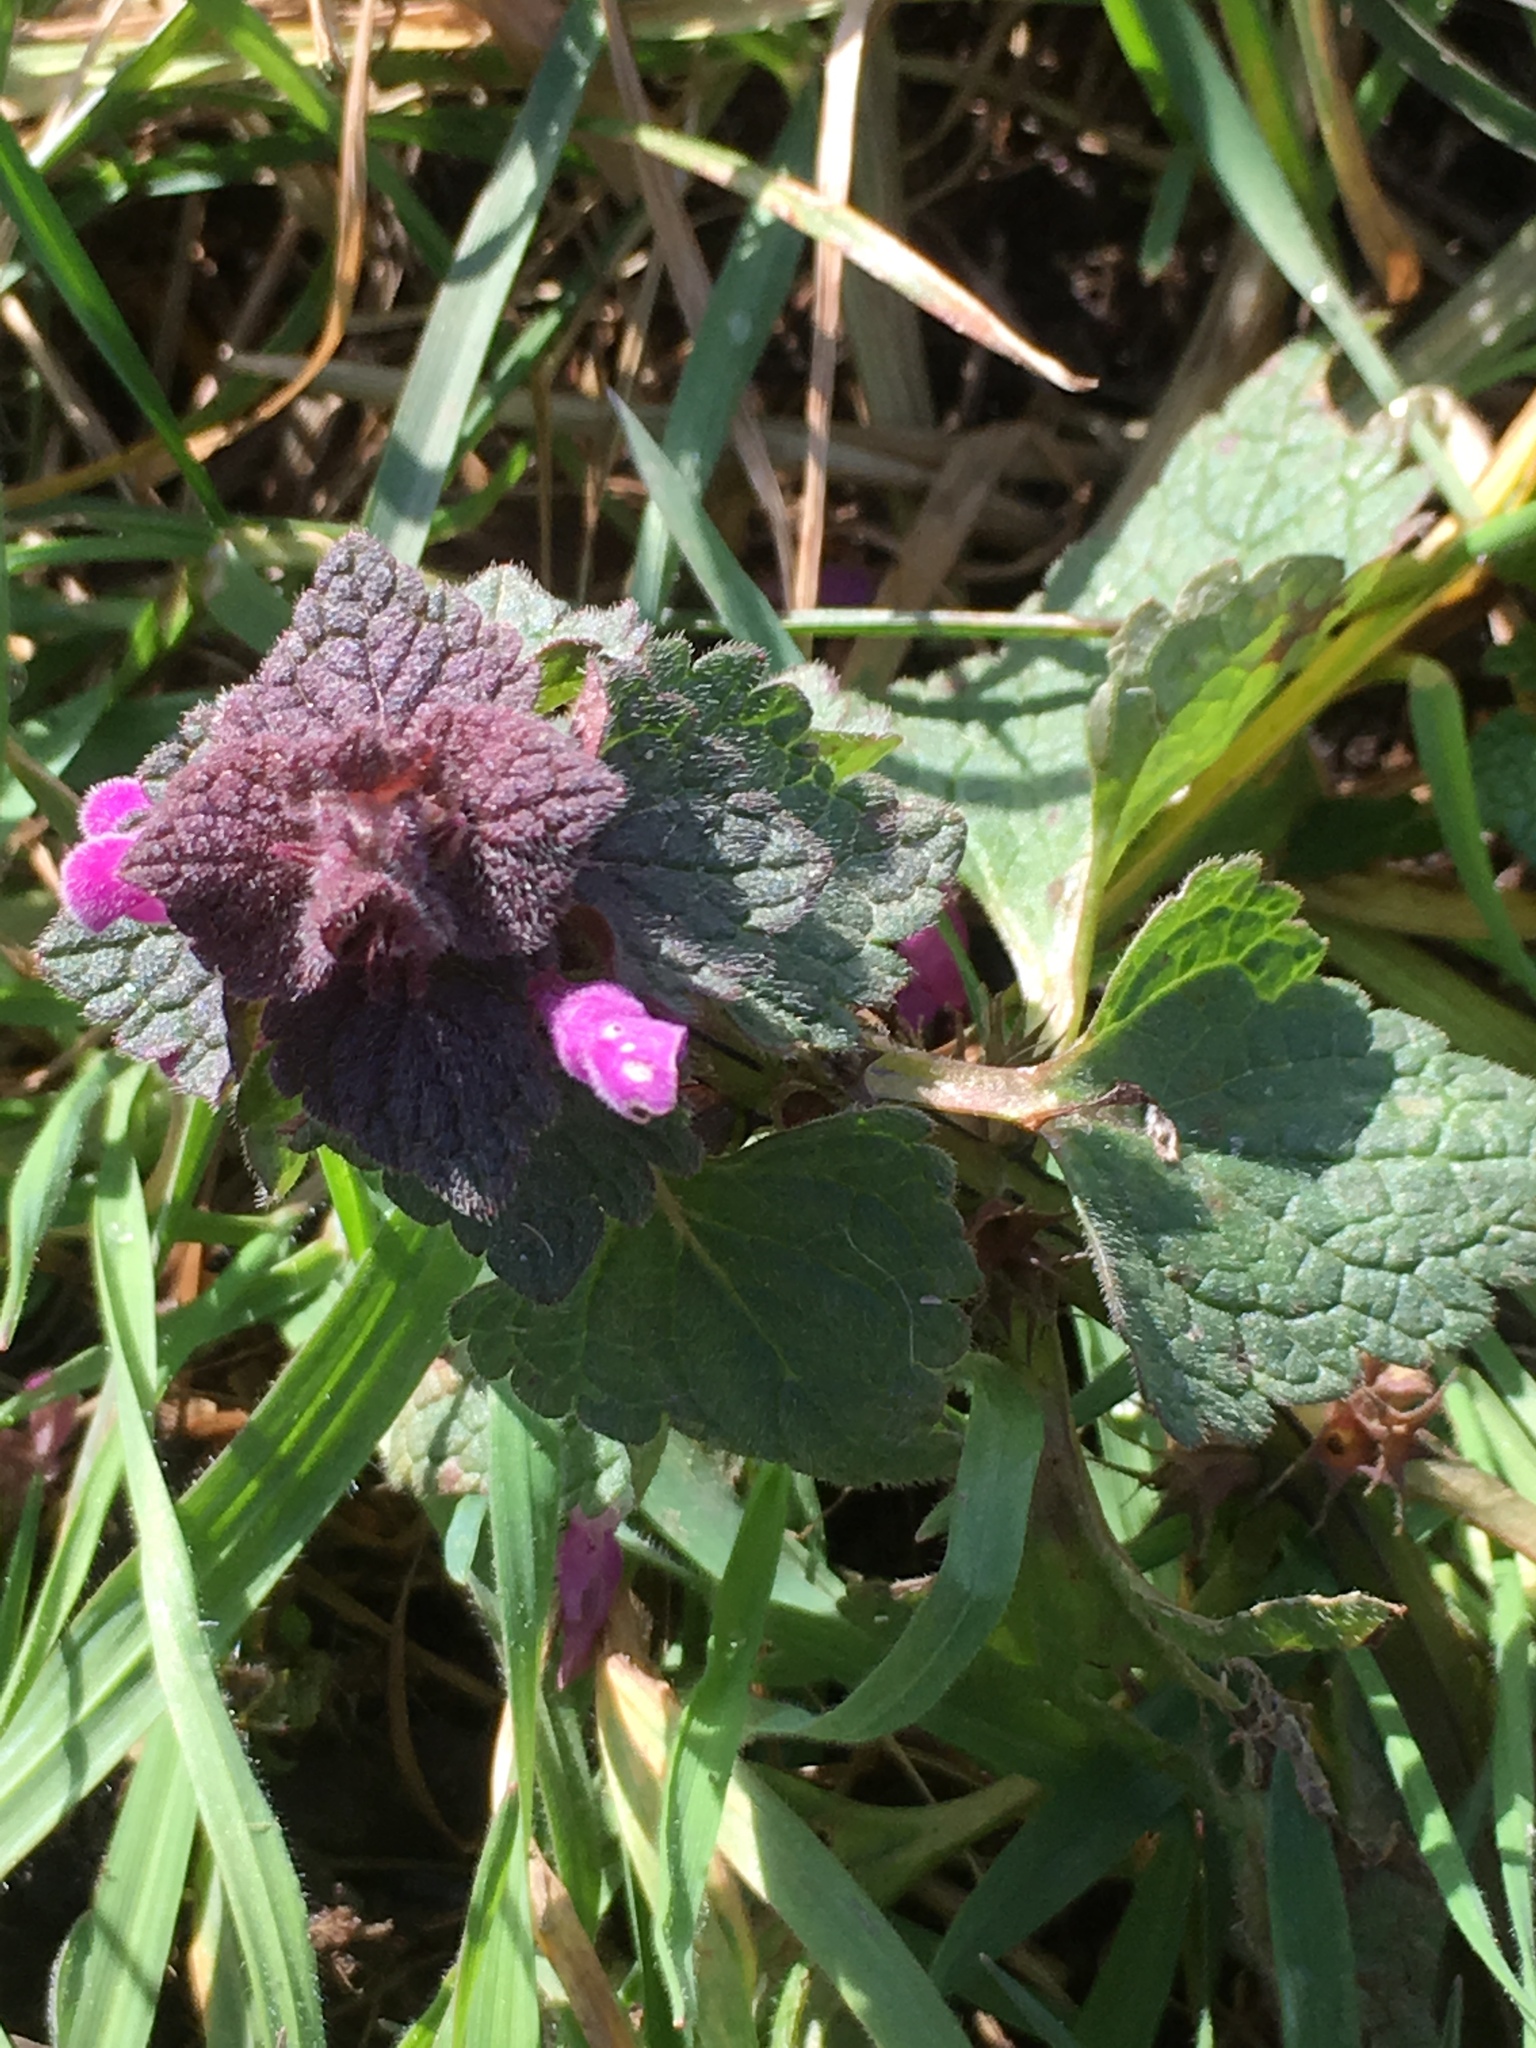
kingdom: Plantae
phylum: Tracheophyta
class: Magnoliopsida
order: Lamiales
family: Lamiaceae
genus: Lamium
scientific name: Lamium purpureum
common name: Red dead-nettle
